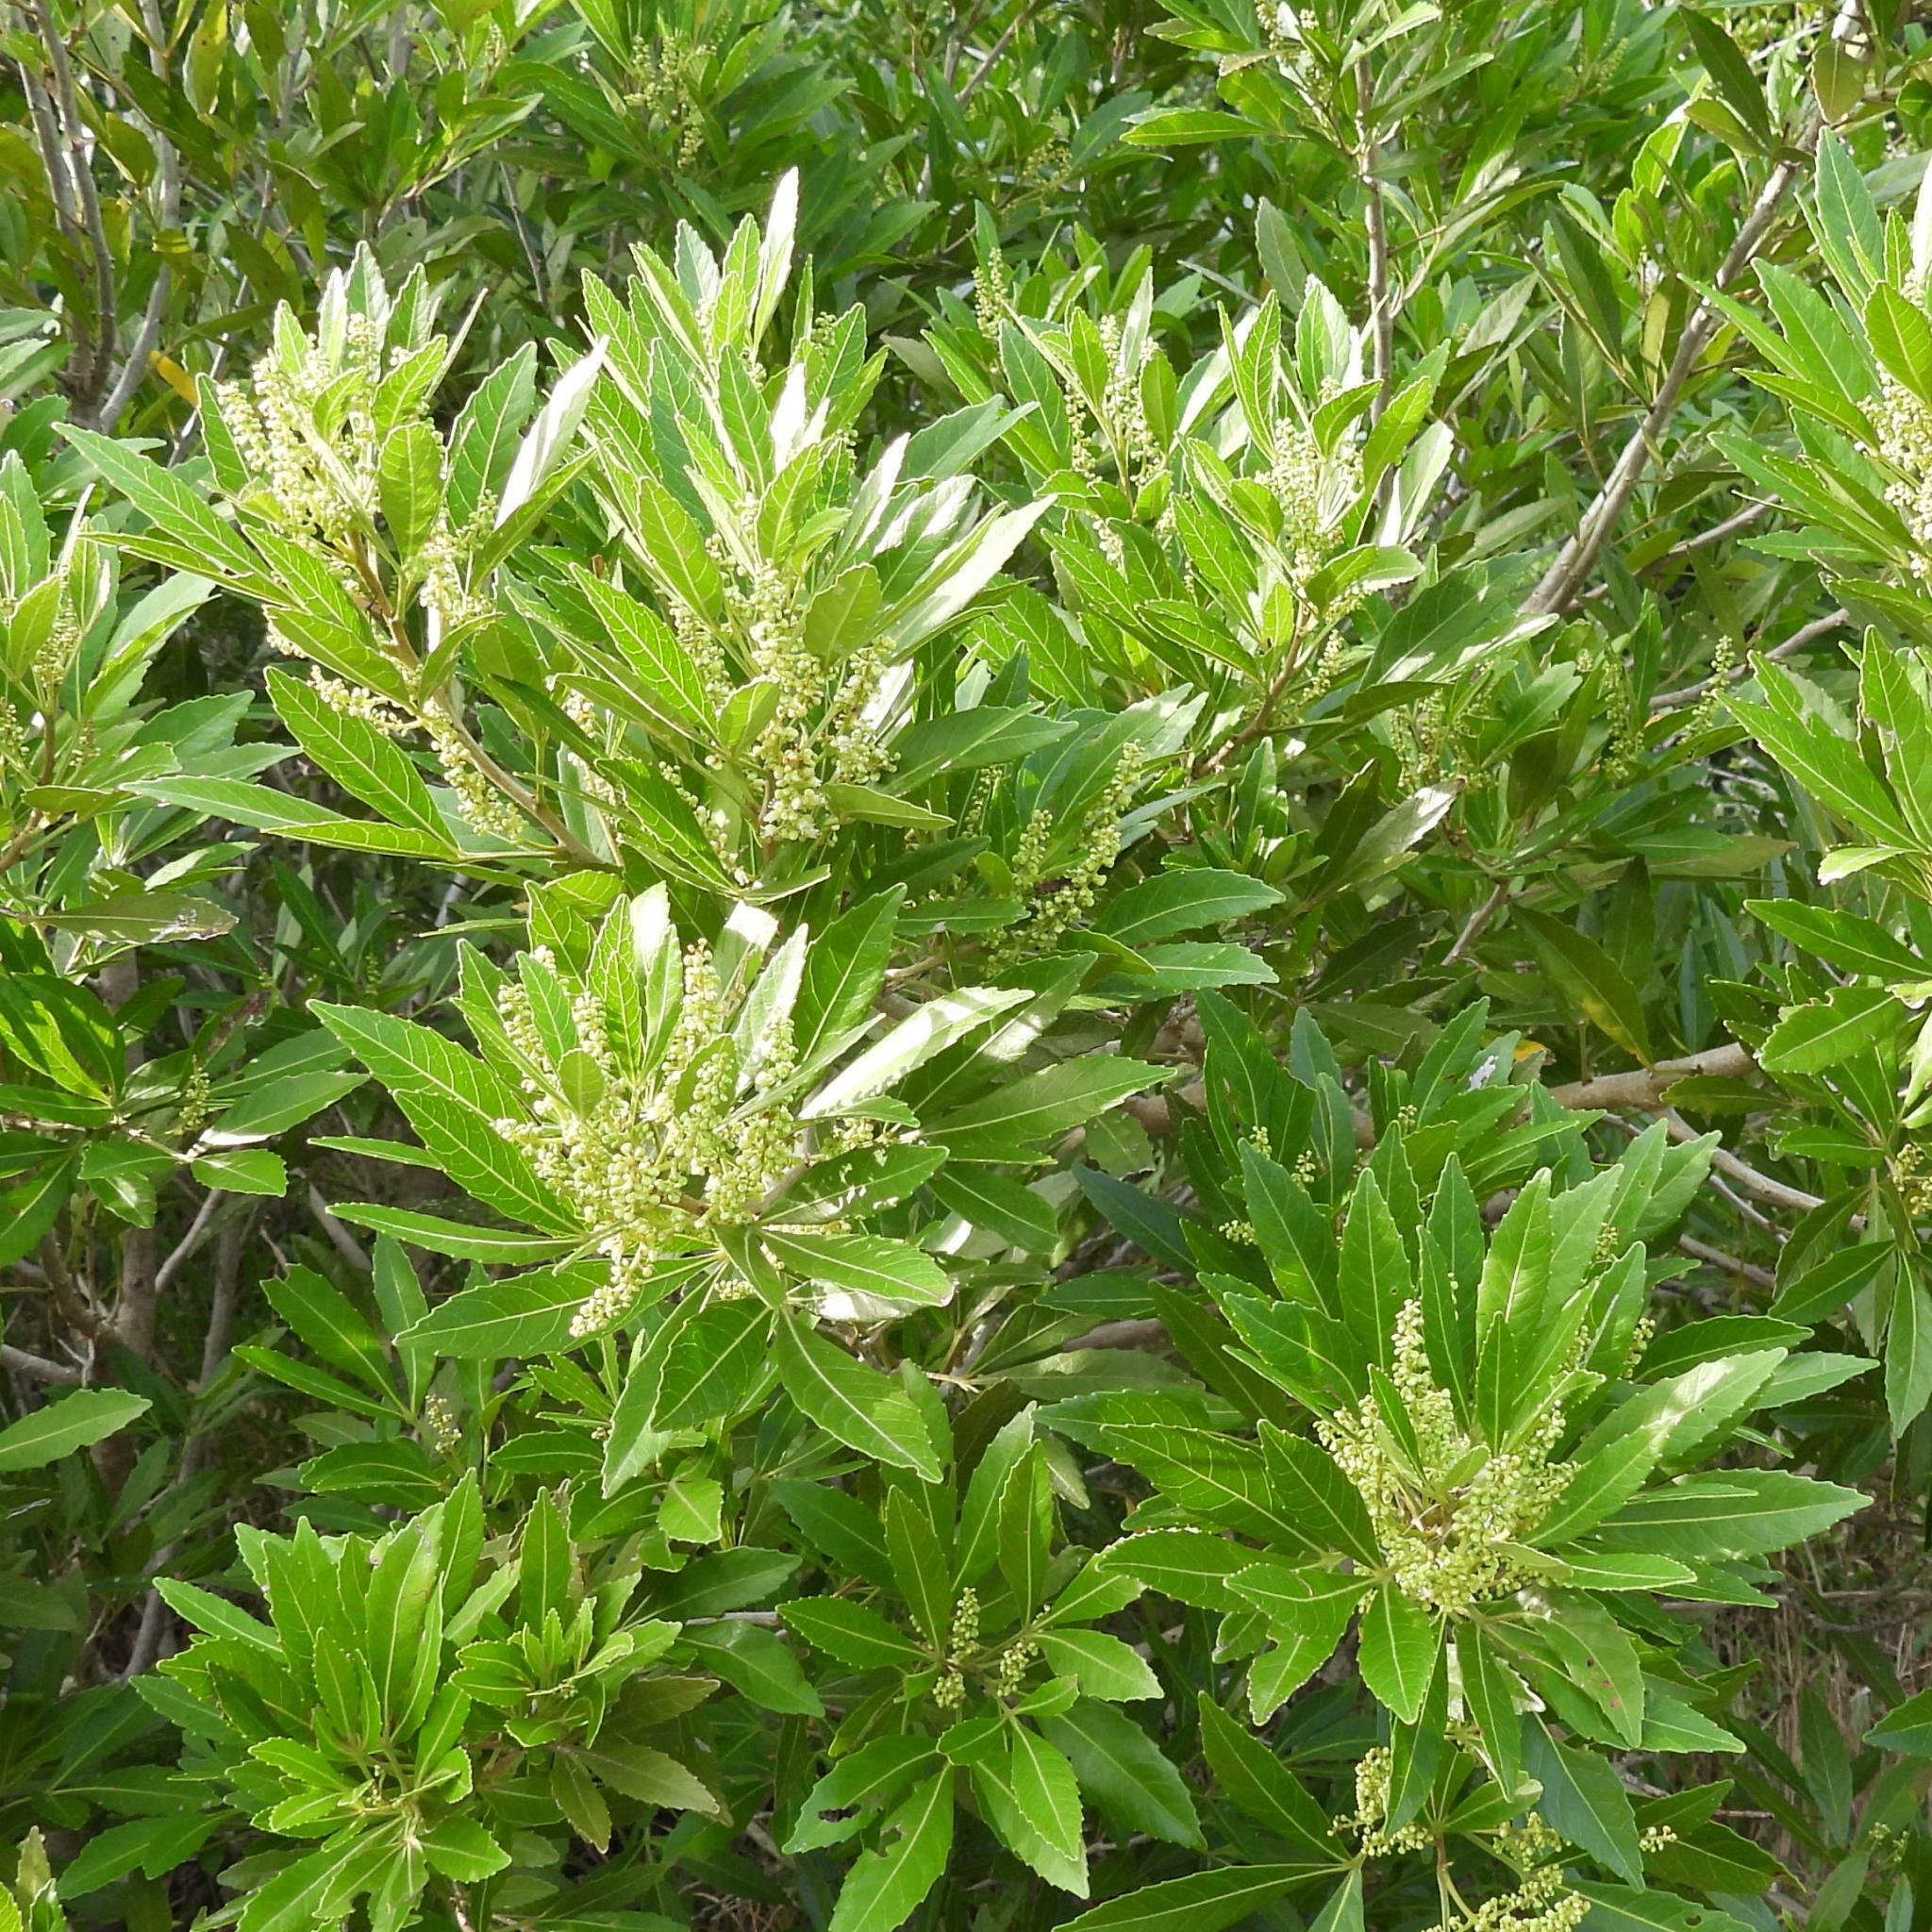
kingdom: Plantae
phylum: Tracheophyta
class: Magnoliopsida
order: Sapindales
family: Sapindaceae
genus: Allophylus
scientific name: Allophylus natalensis
